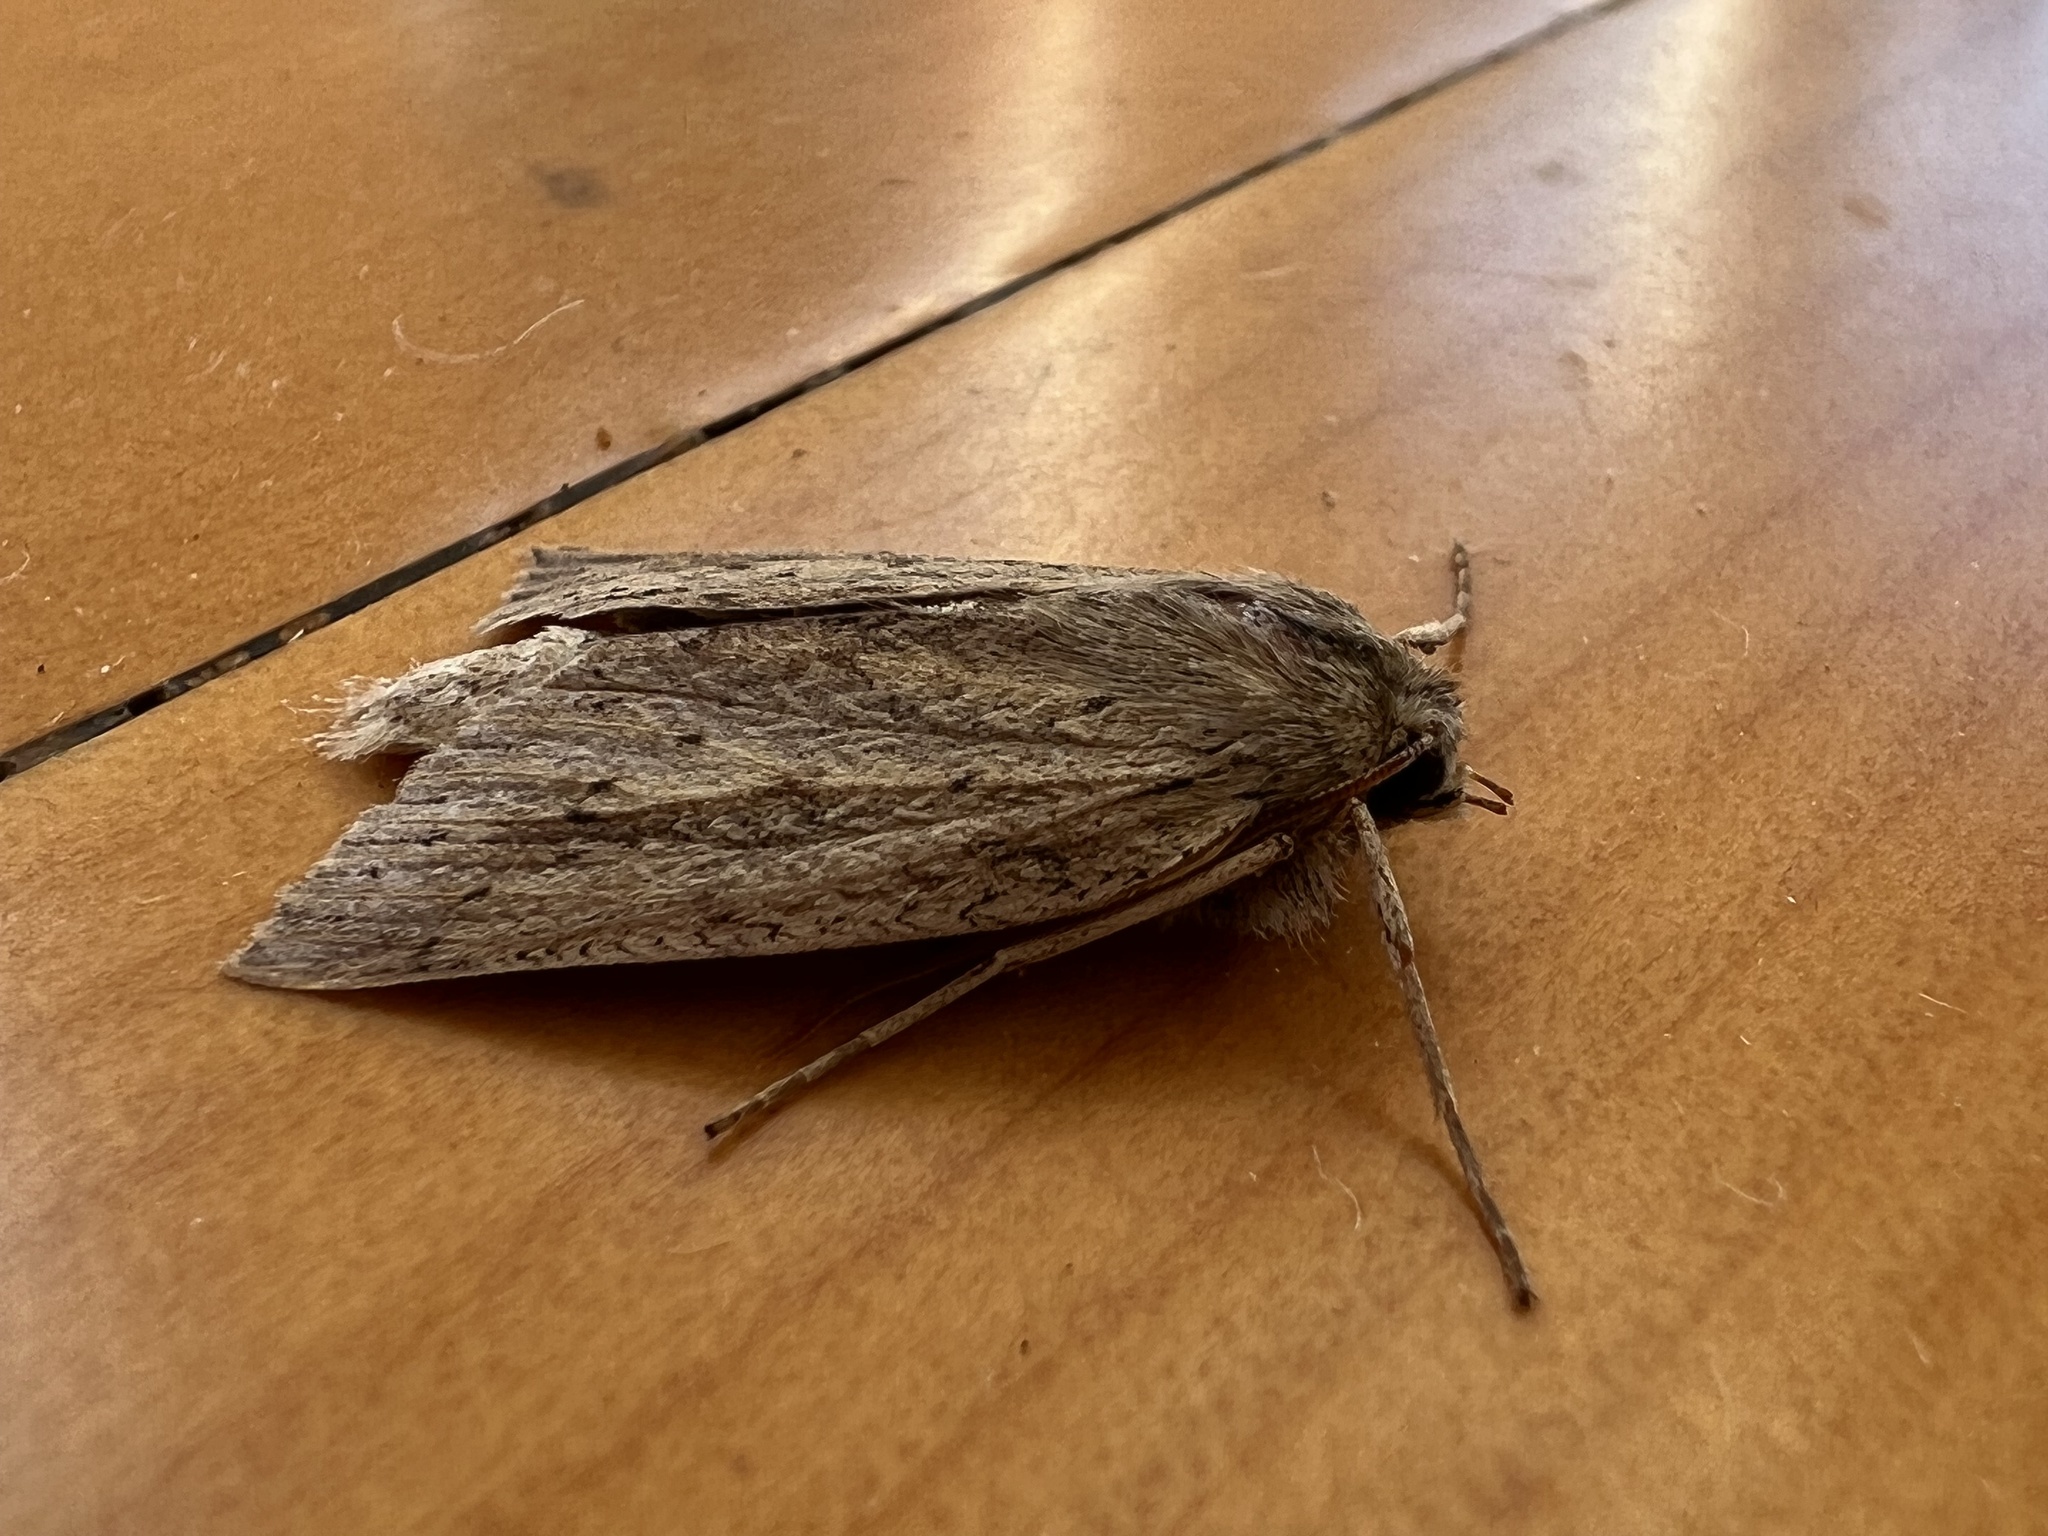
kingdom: Animalia
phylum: Arthropoda
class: Insecta
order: Lepidoptera
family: Geometridae
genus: Declana
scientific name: Declana leptomera
